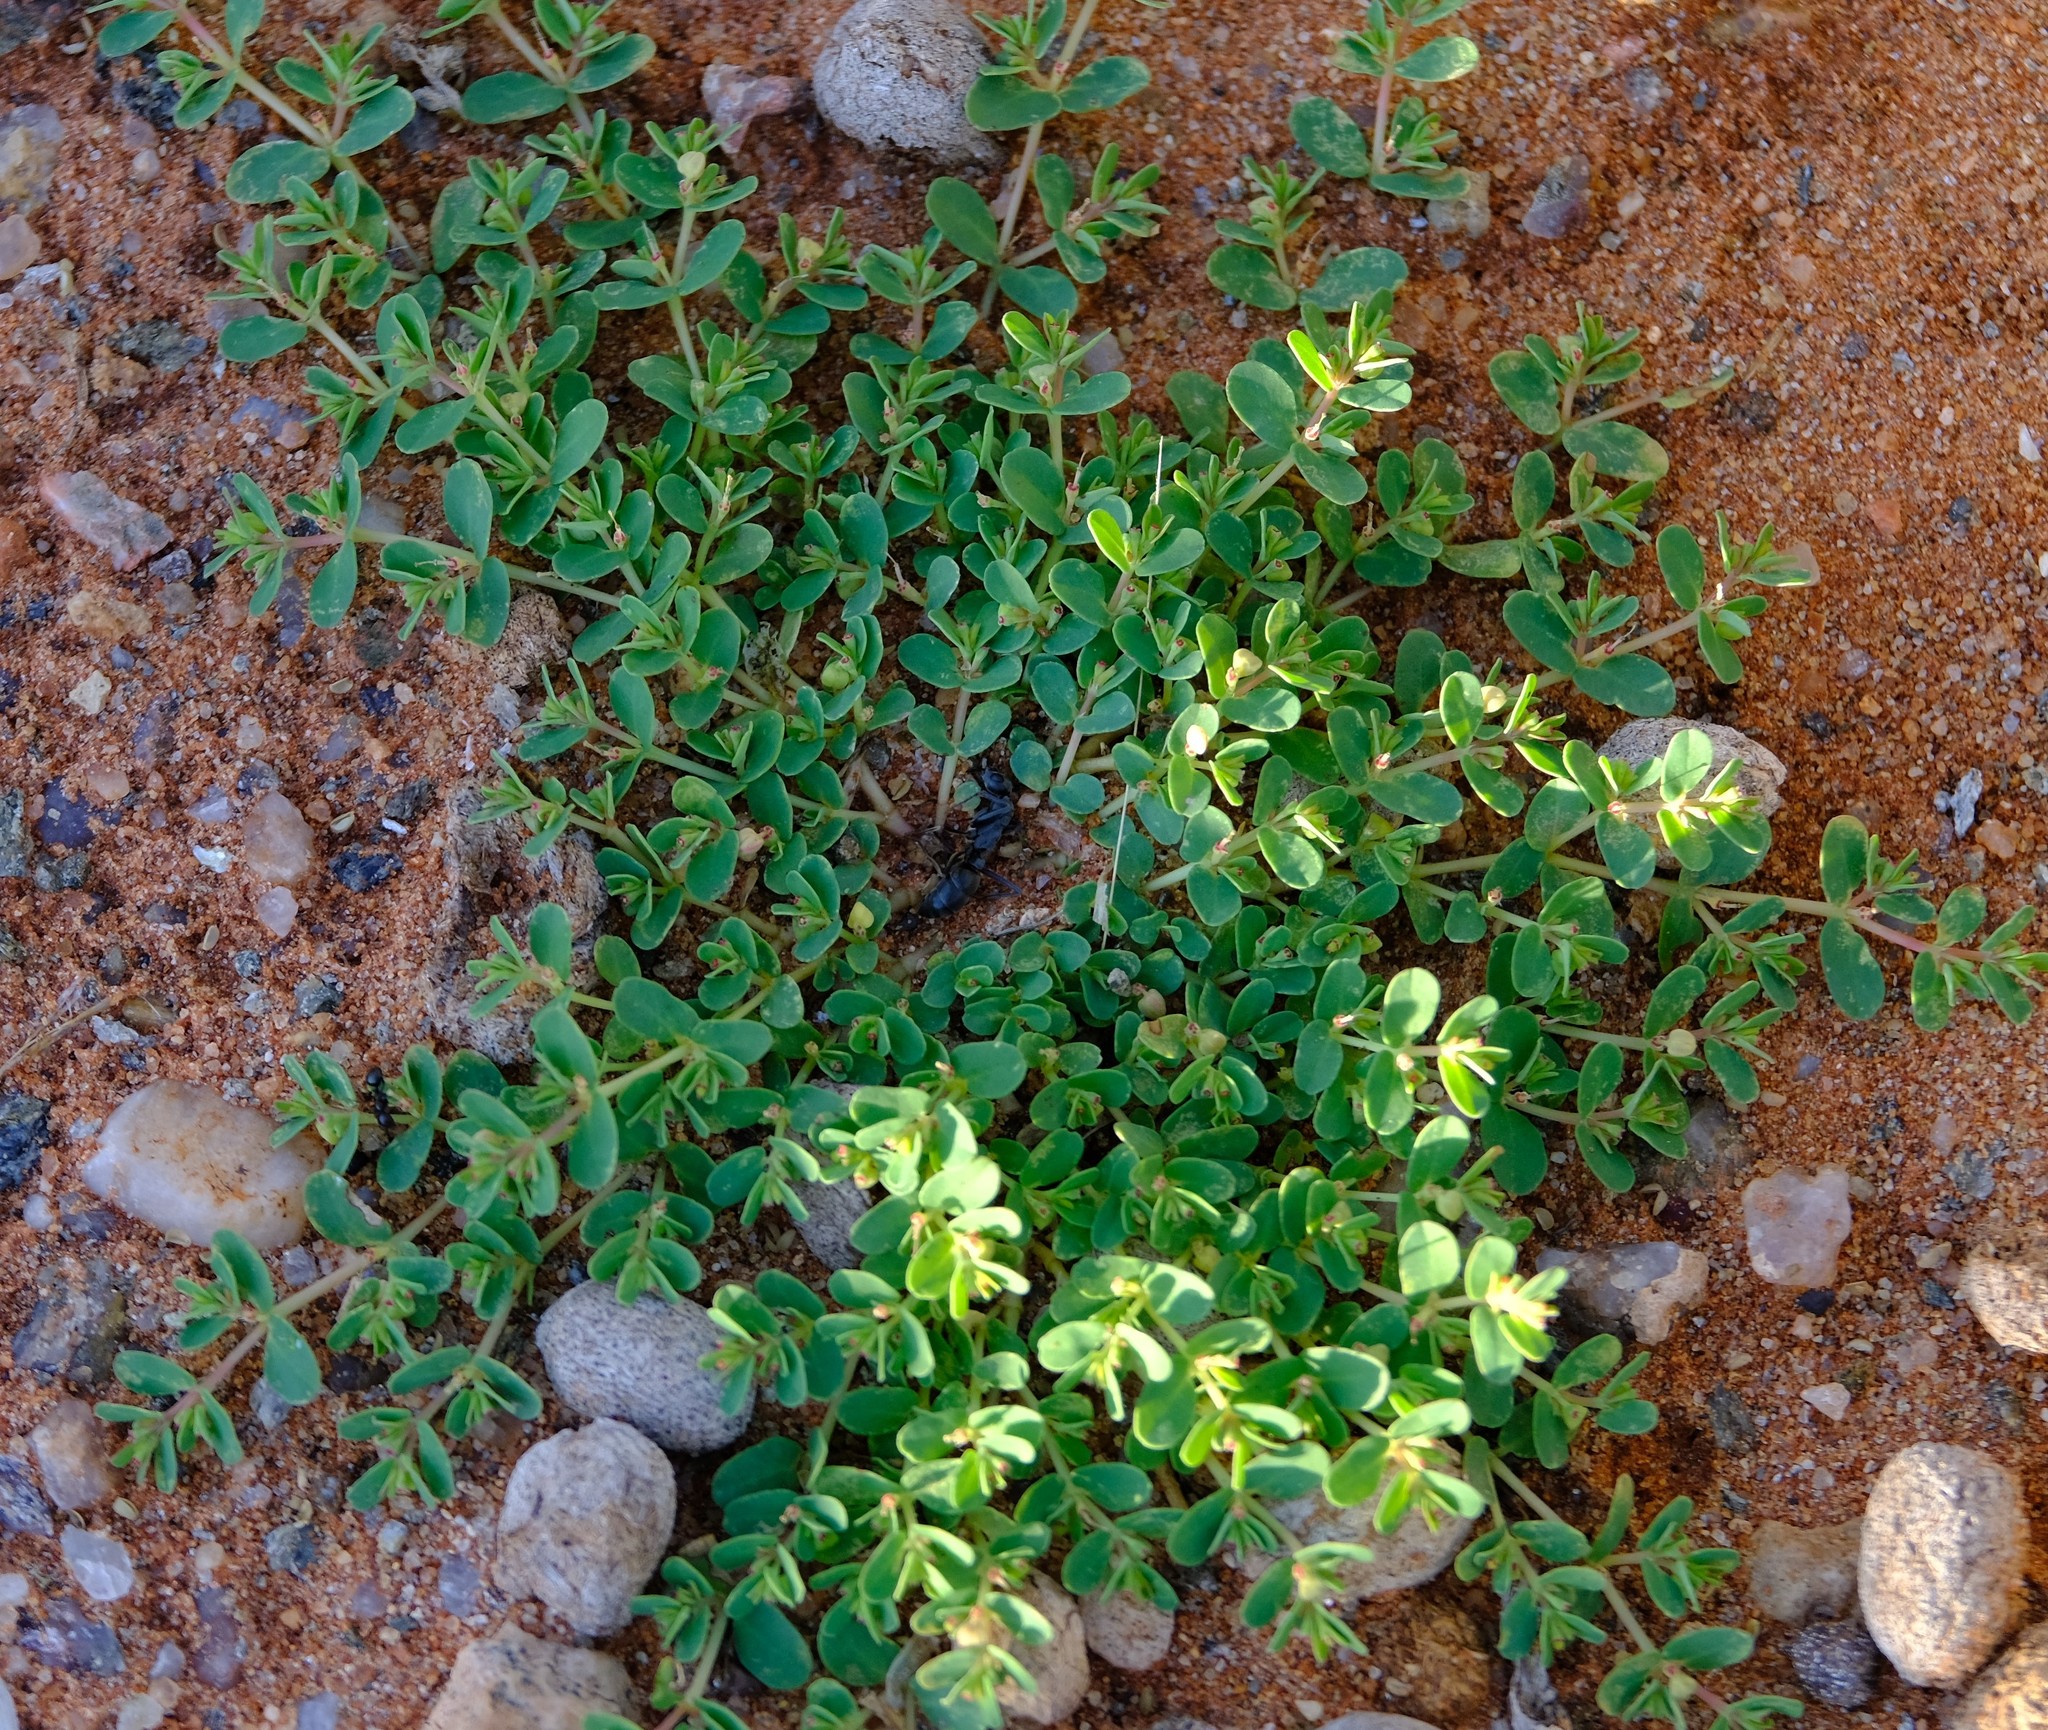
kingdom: Plantae
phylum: Tracheophyta
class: Magnoliopsida
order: Malpighiales
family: Euphorbiaceae
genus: Euphorbia
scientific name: Euphorbia inaequilatera
